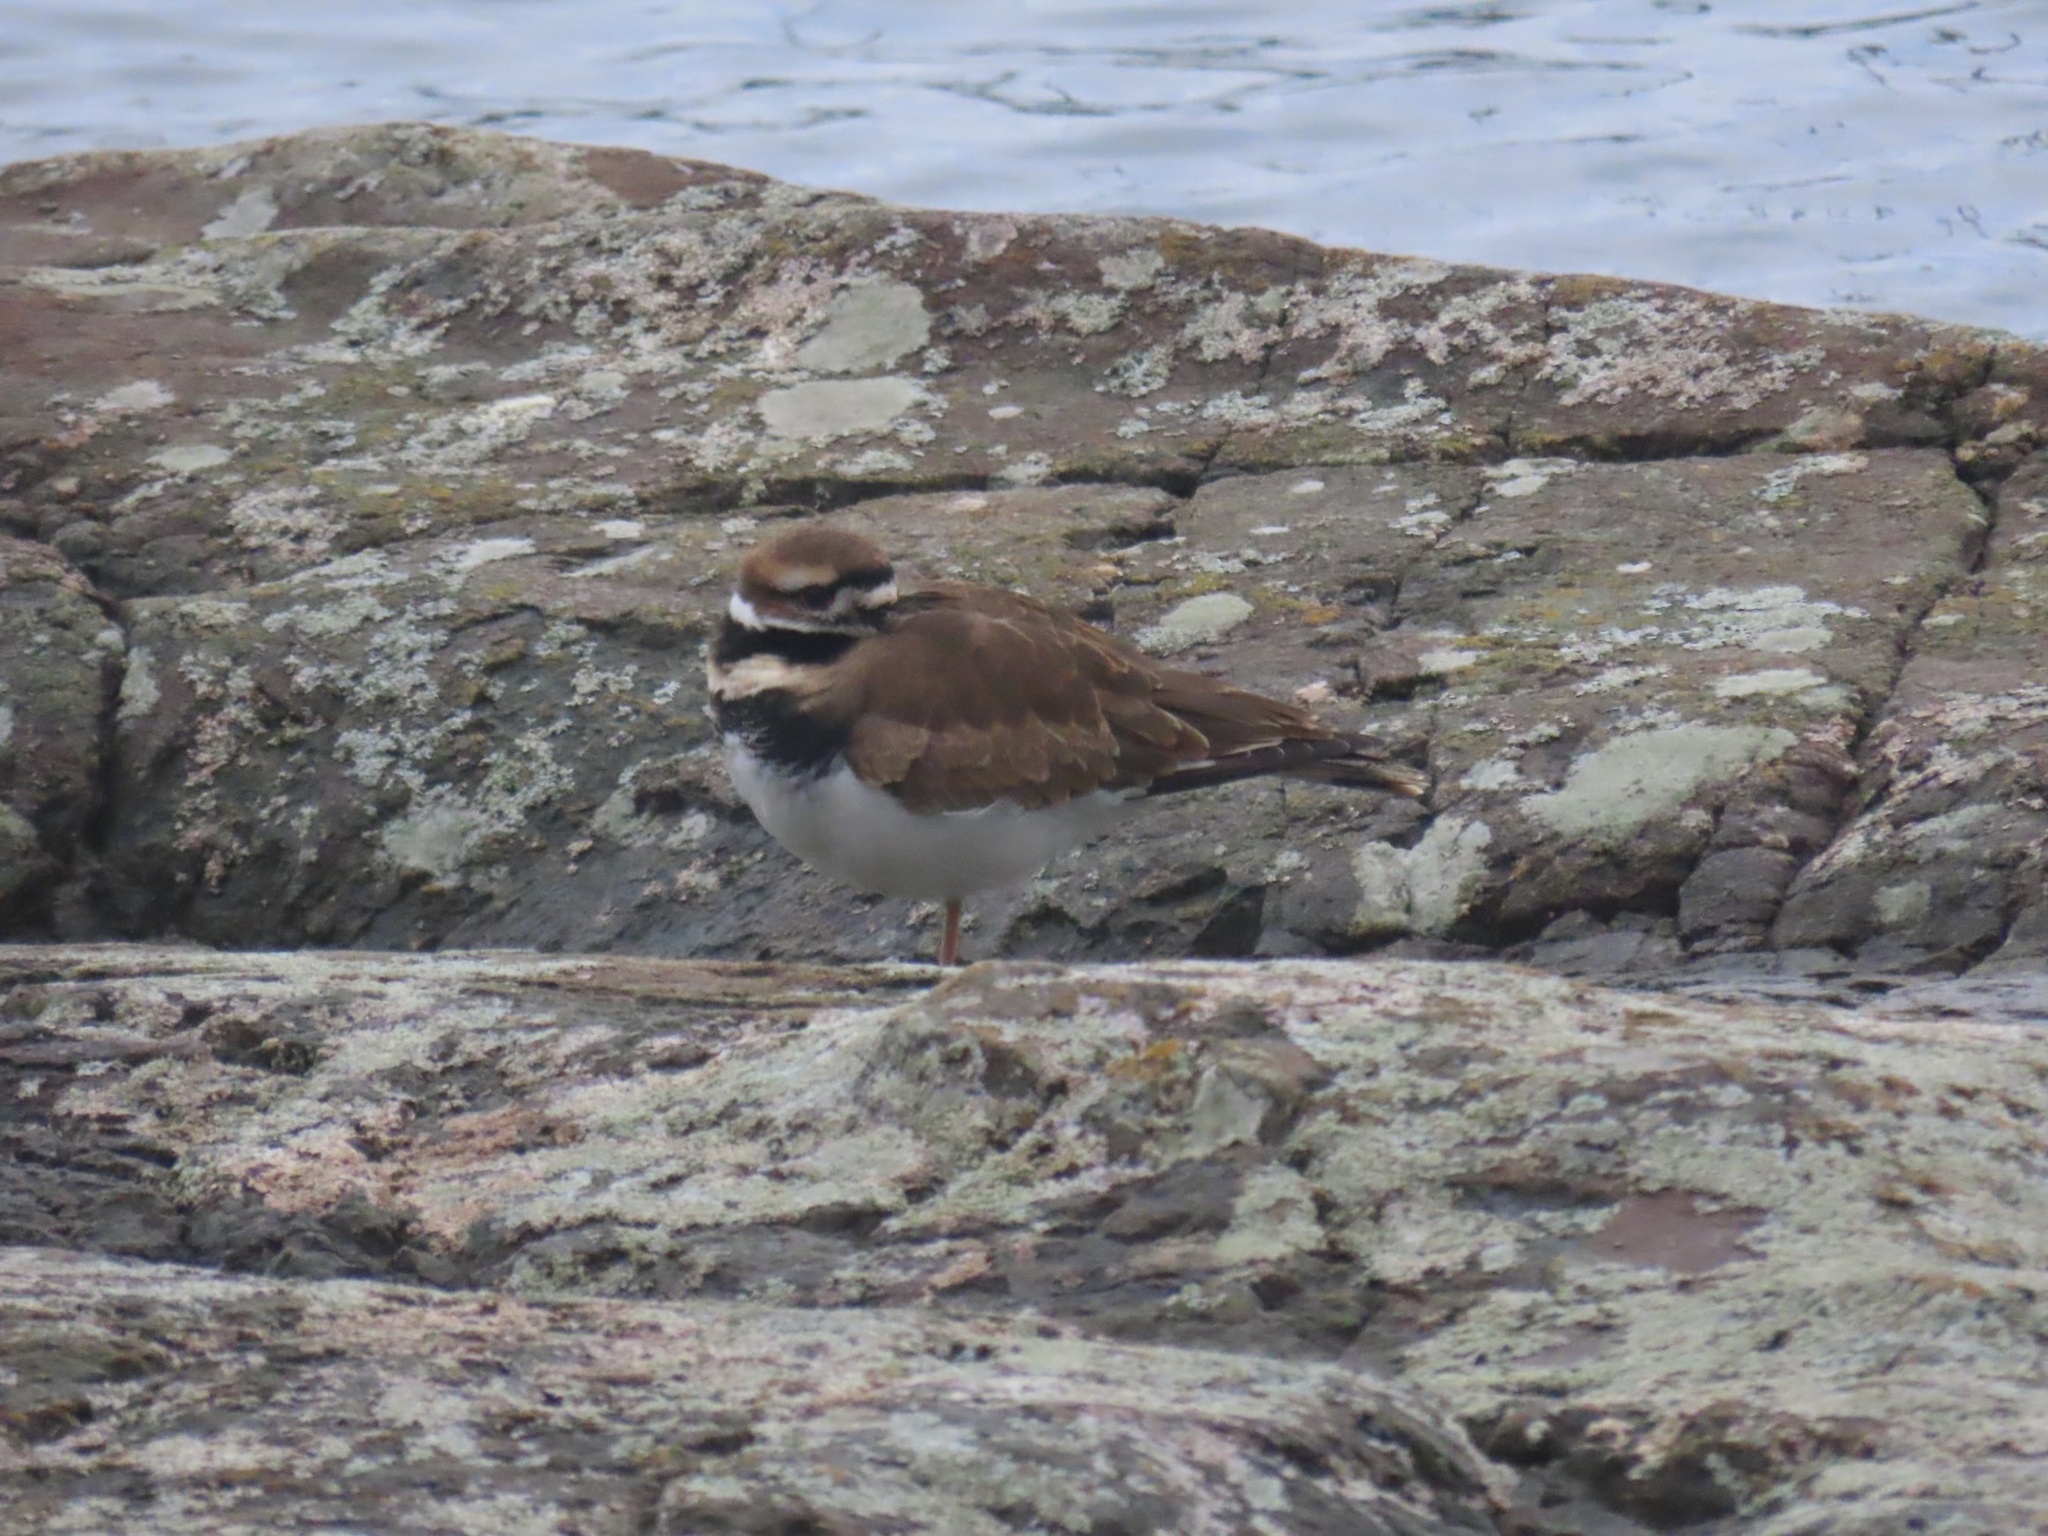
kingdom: Animalia
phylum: Chordata
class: Aves
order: Charadriiformes
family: Charadriidae
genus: Charadrius
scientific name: Charadrius vociferus
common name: Killdeer
